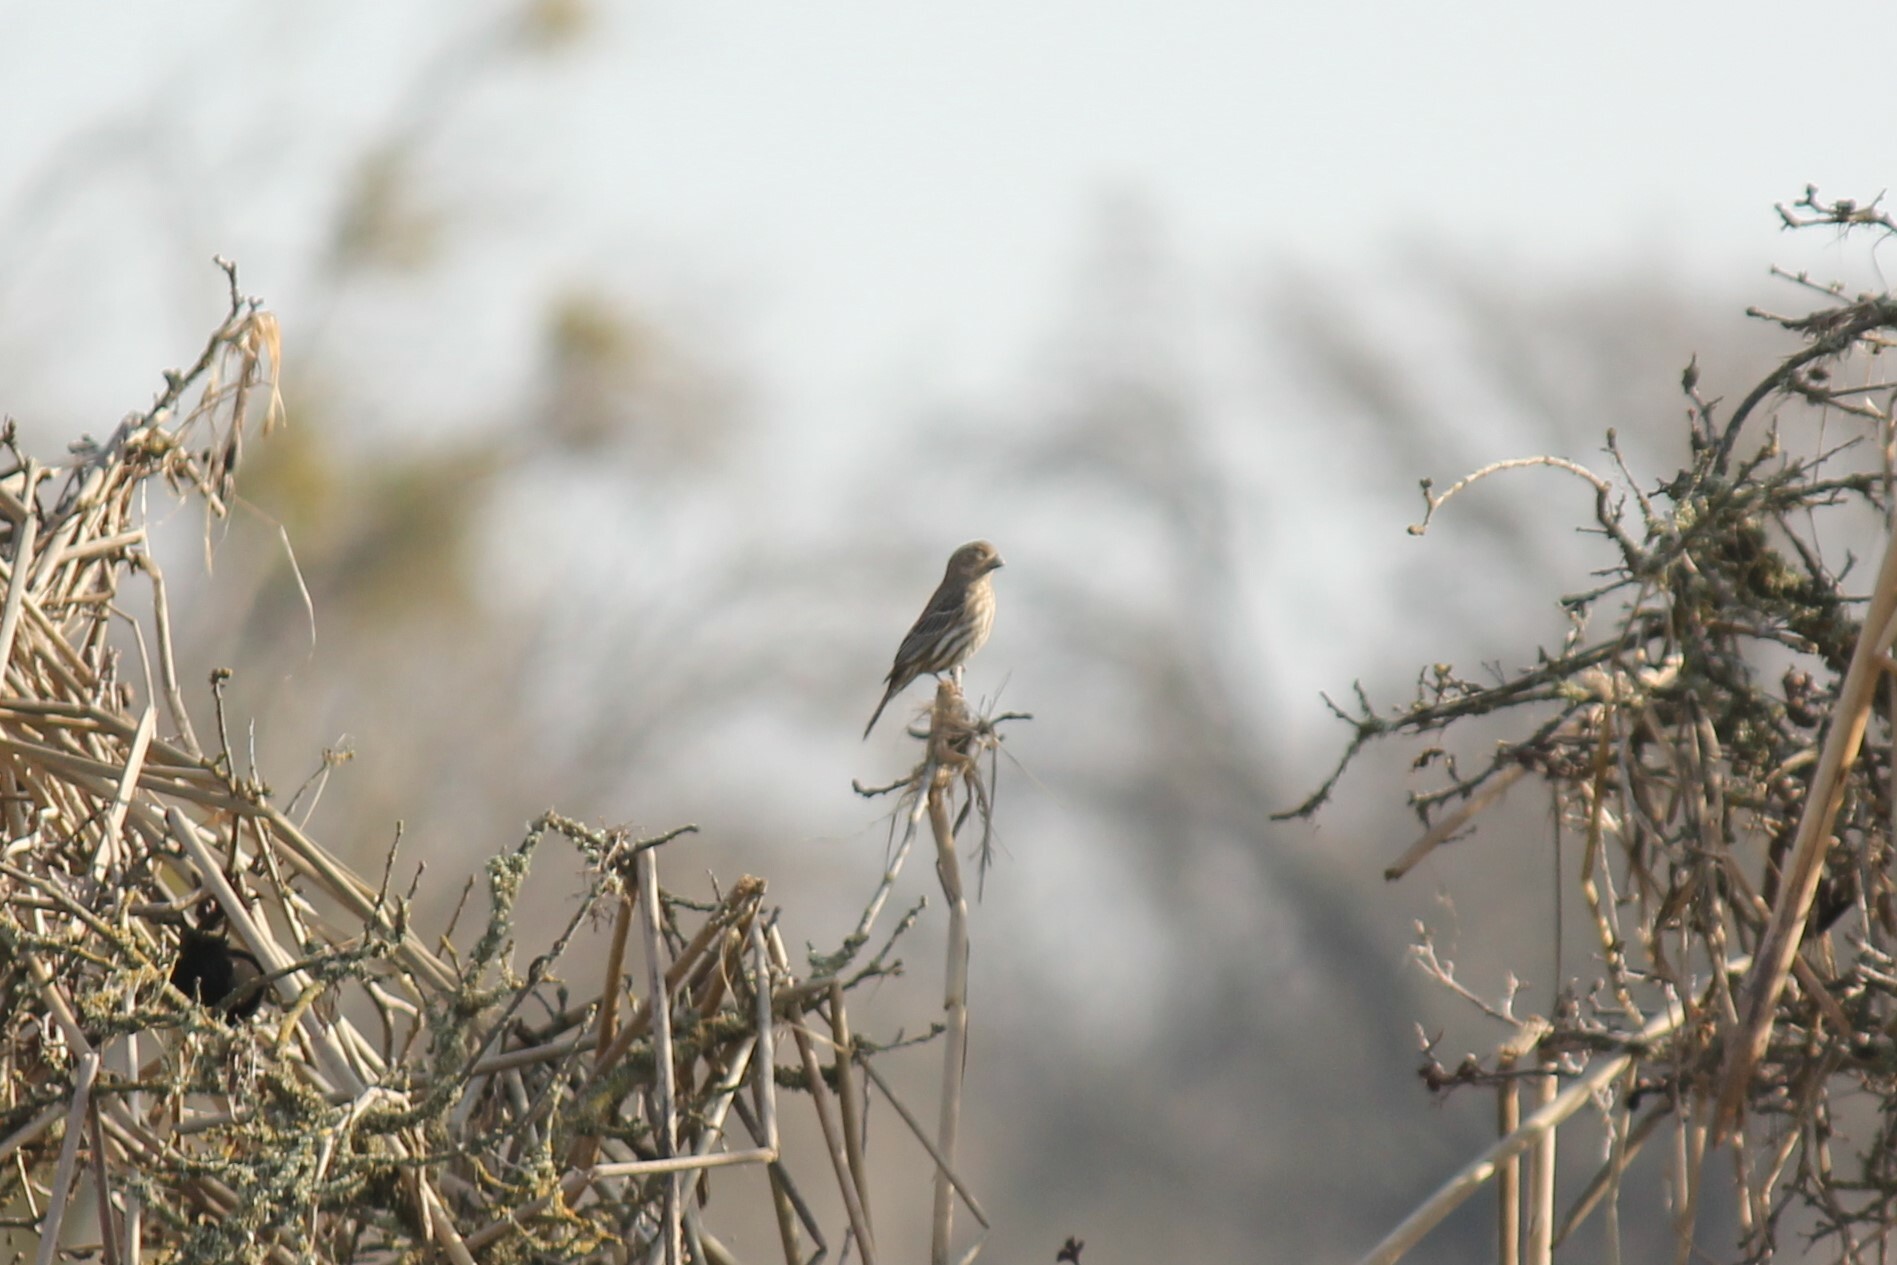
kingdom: Animalia
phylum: Chordata
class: Aves
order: Passeriformes
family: Fringillidae
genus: Haemorhous
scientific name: Haemorhous mexicanus
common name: House finch
